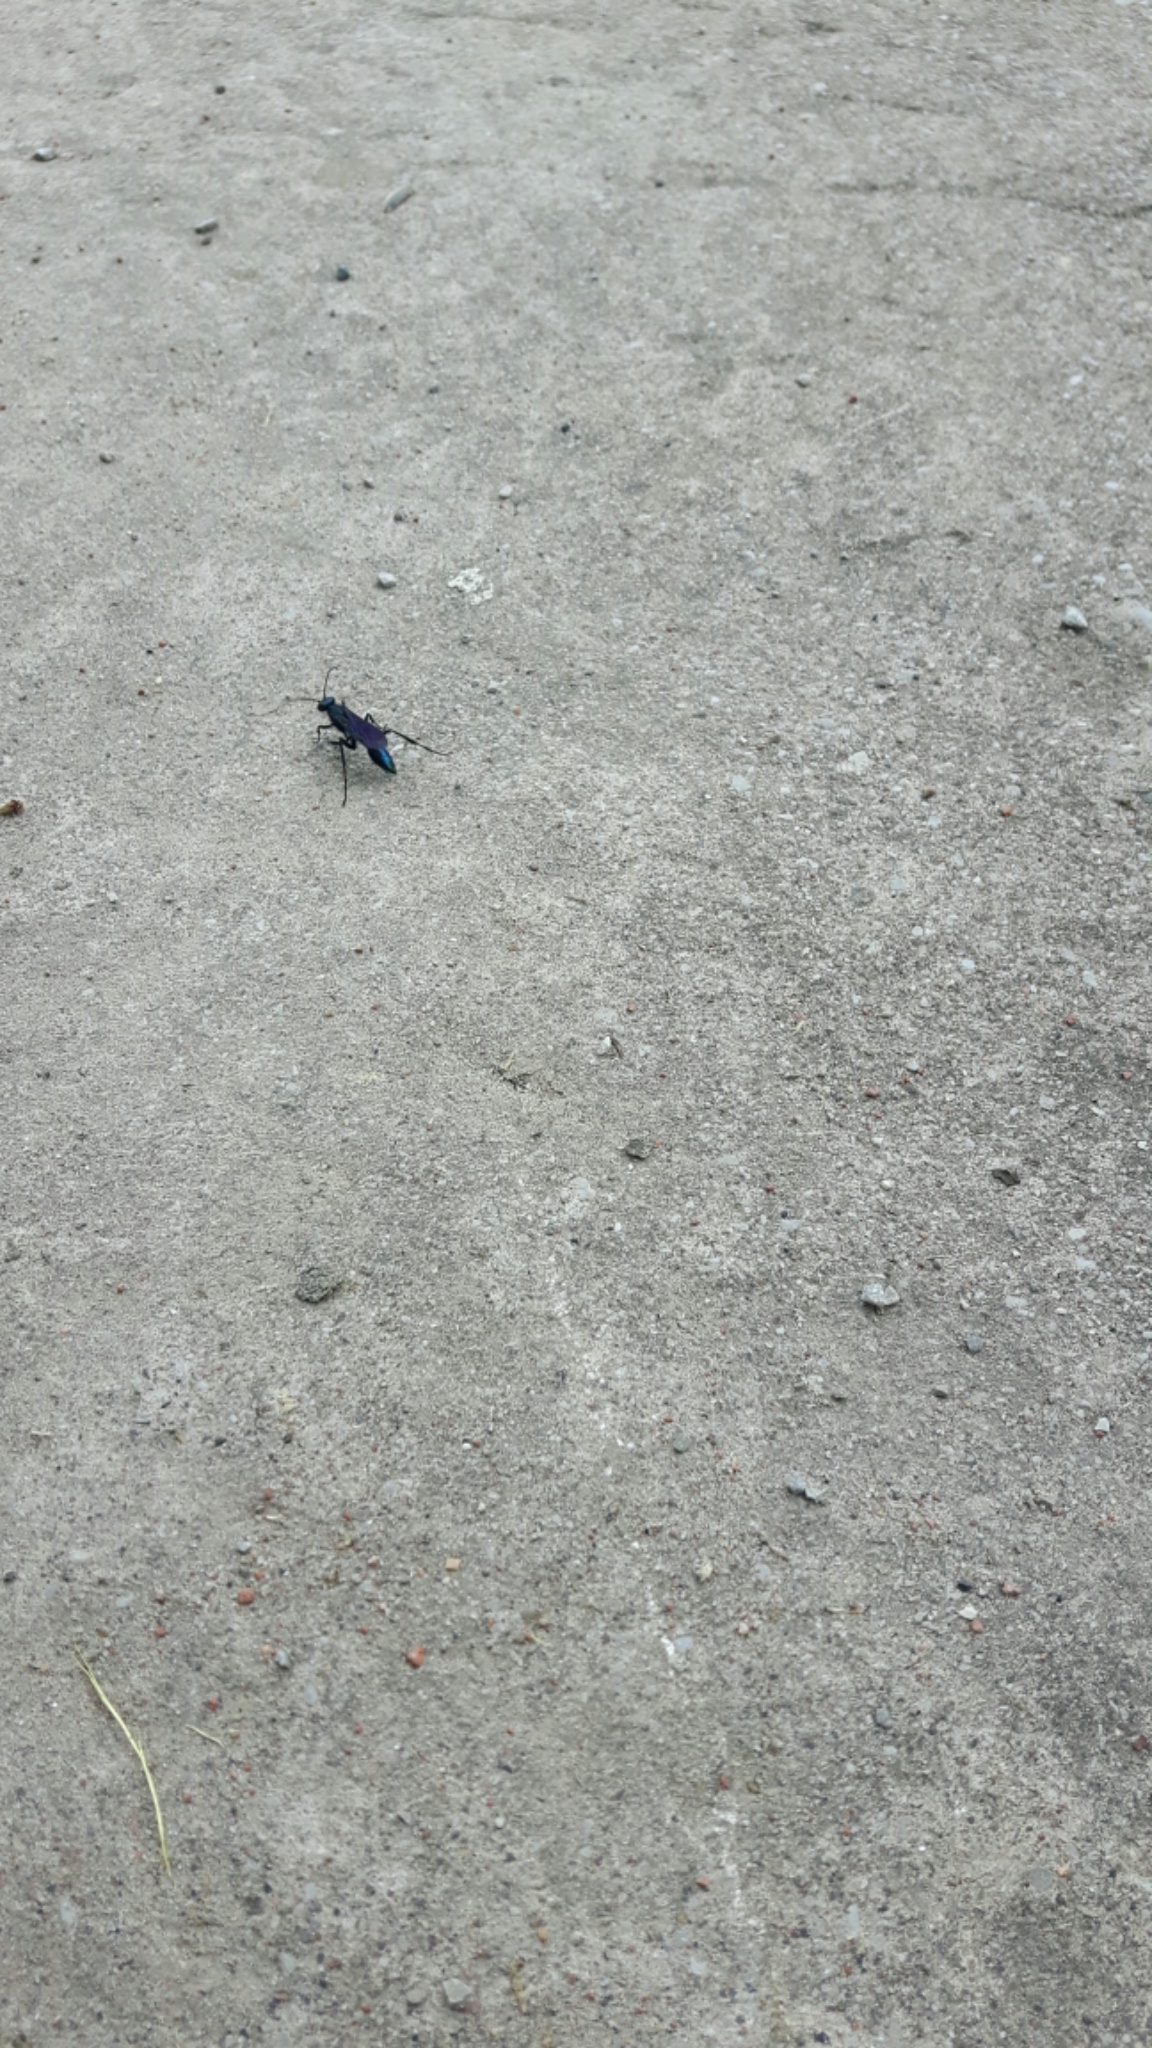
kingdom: Animalia
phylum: Arthropoda
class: Insecta
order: Hymenoptera
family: Sphecidae
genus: Chalybion
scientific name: Chalybion californicum
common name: Mud dauber
